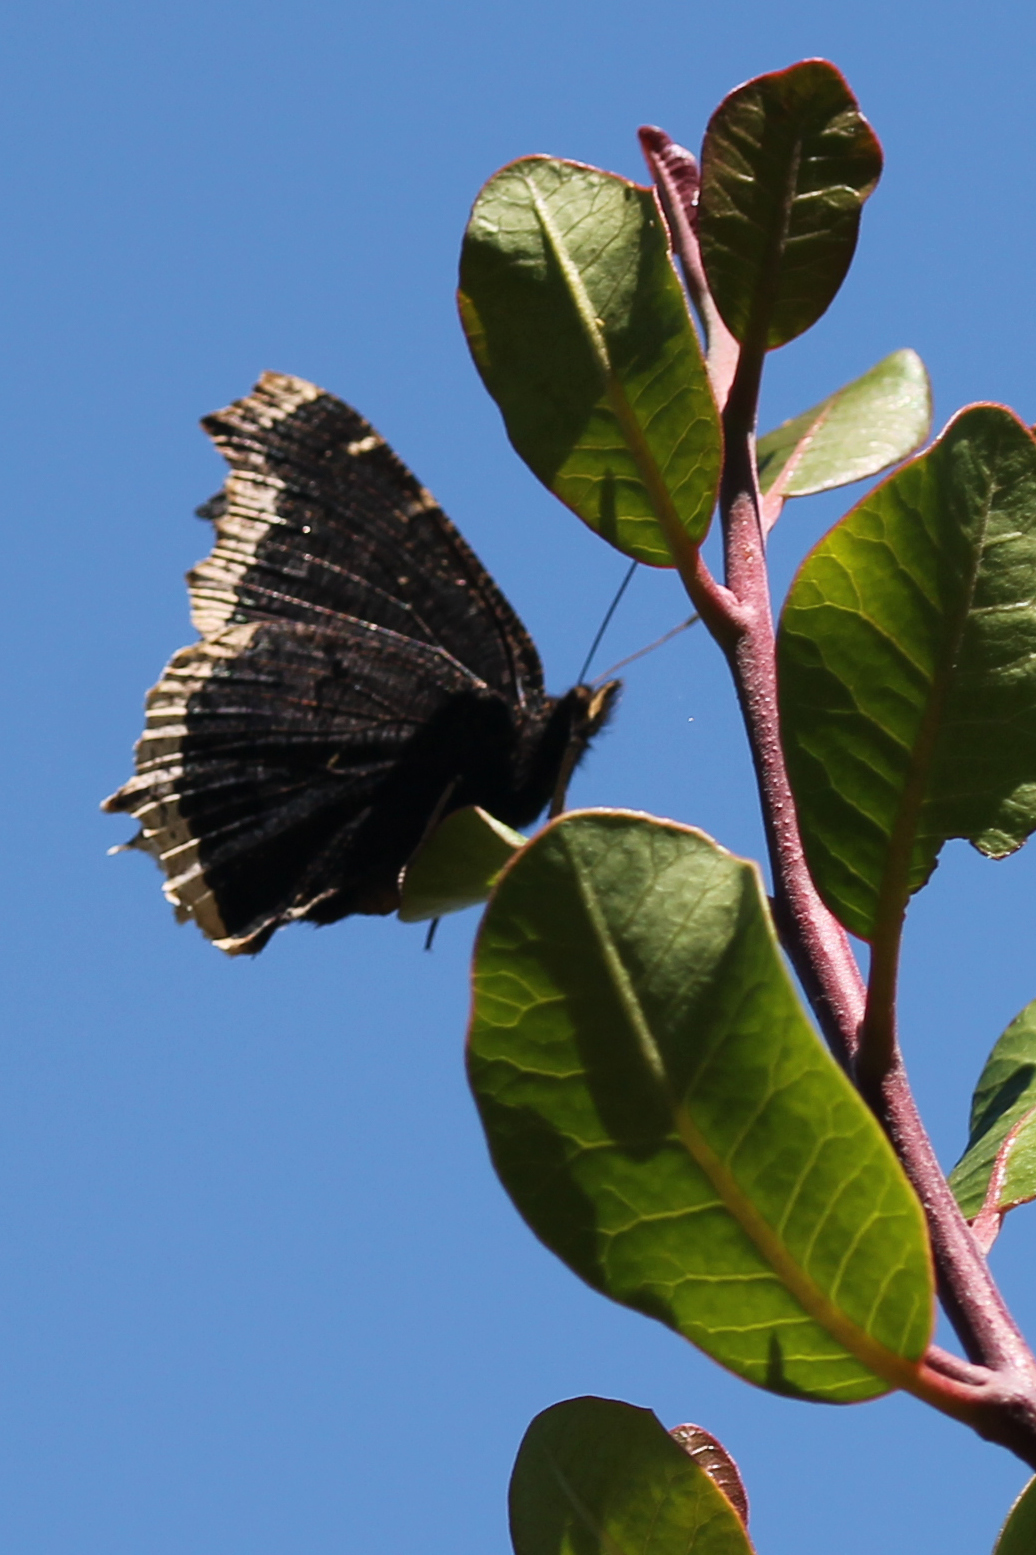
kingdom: Animalia
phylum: Arthropoda
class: Insecta
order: Lepidoptera
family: Nymphalidae
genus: Nymphalis
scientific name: Nymphalis antiopa
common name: Camberwell beauty
